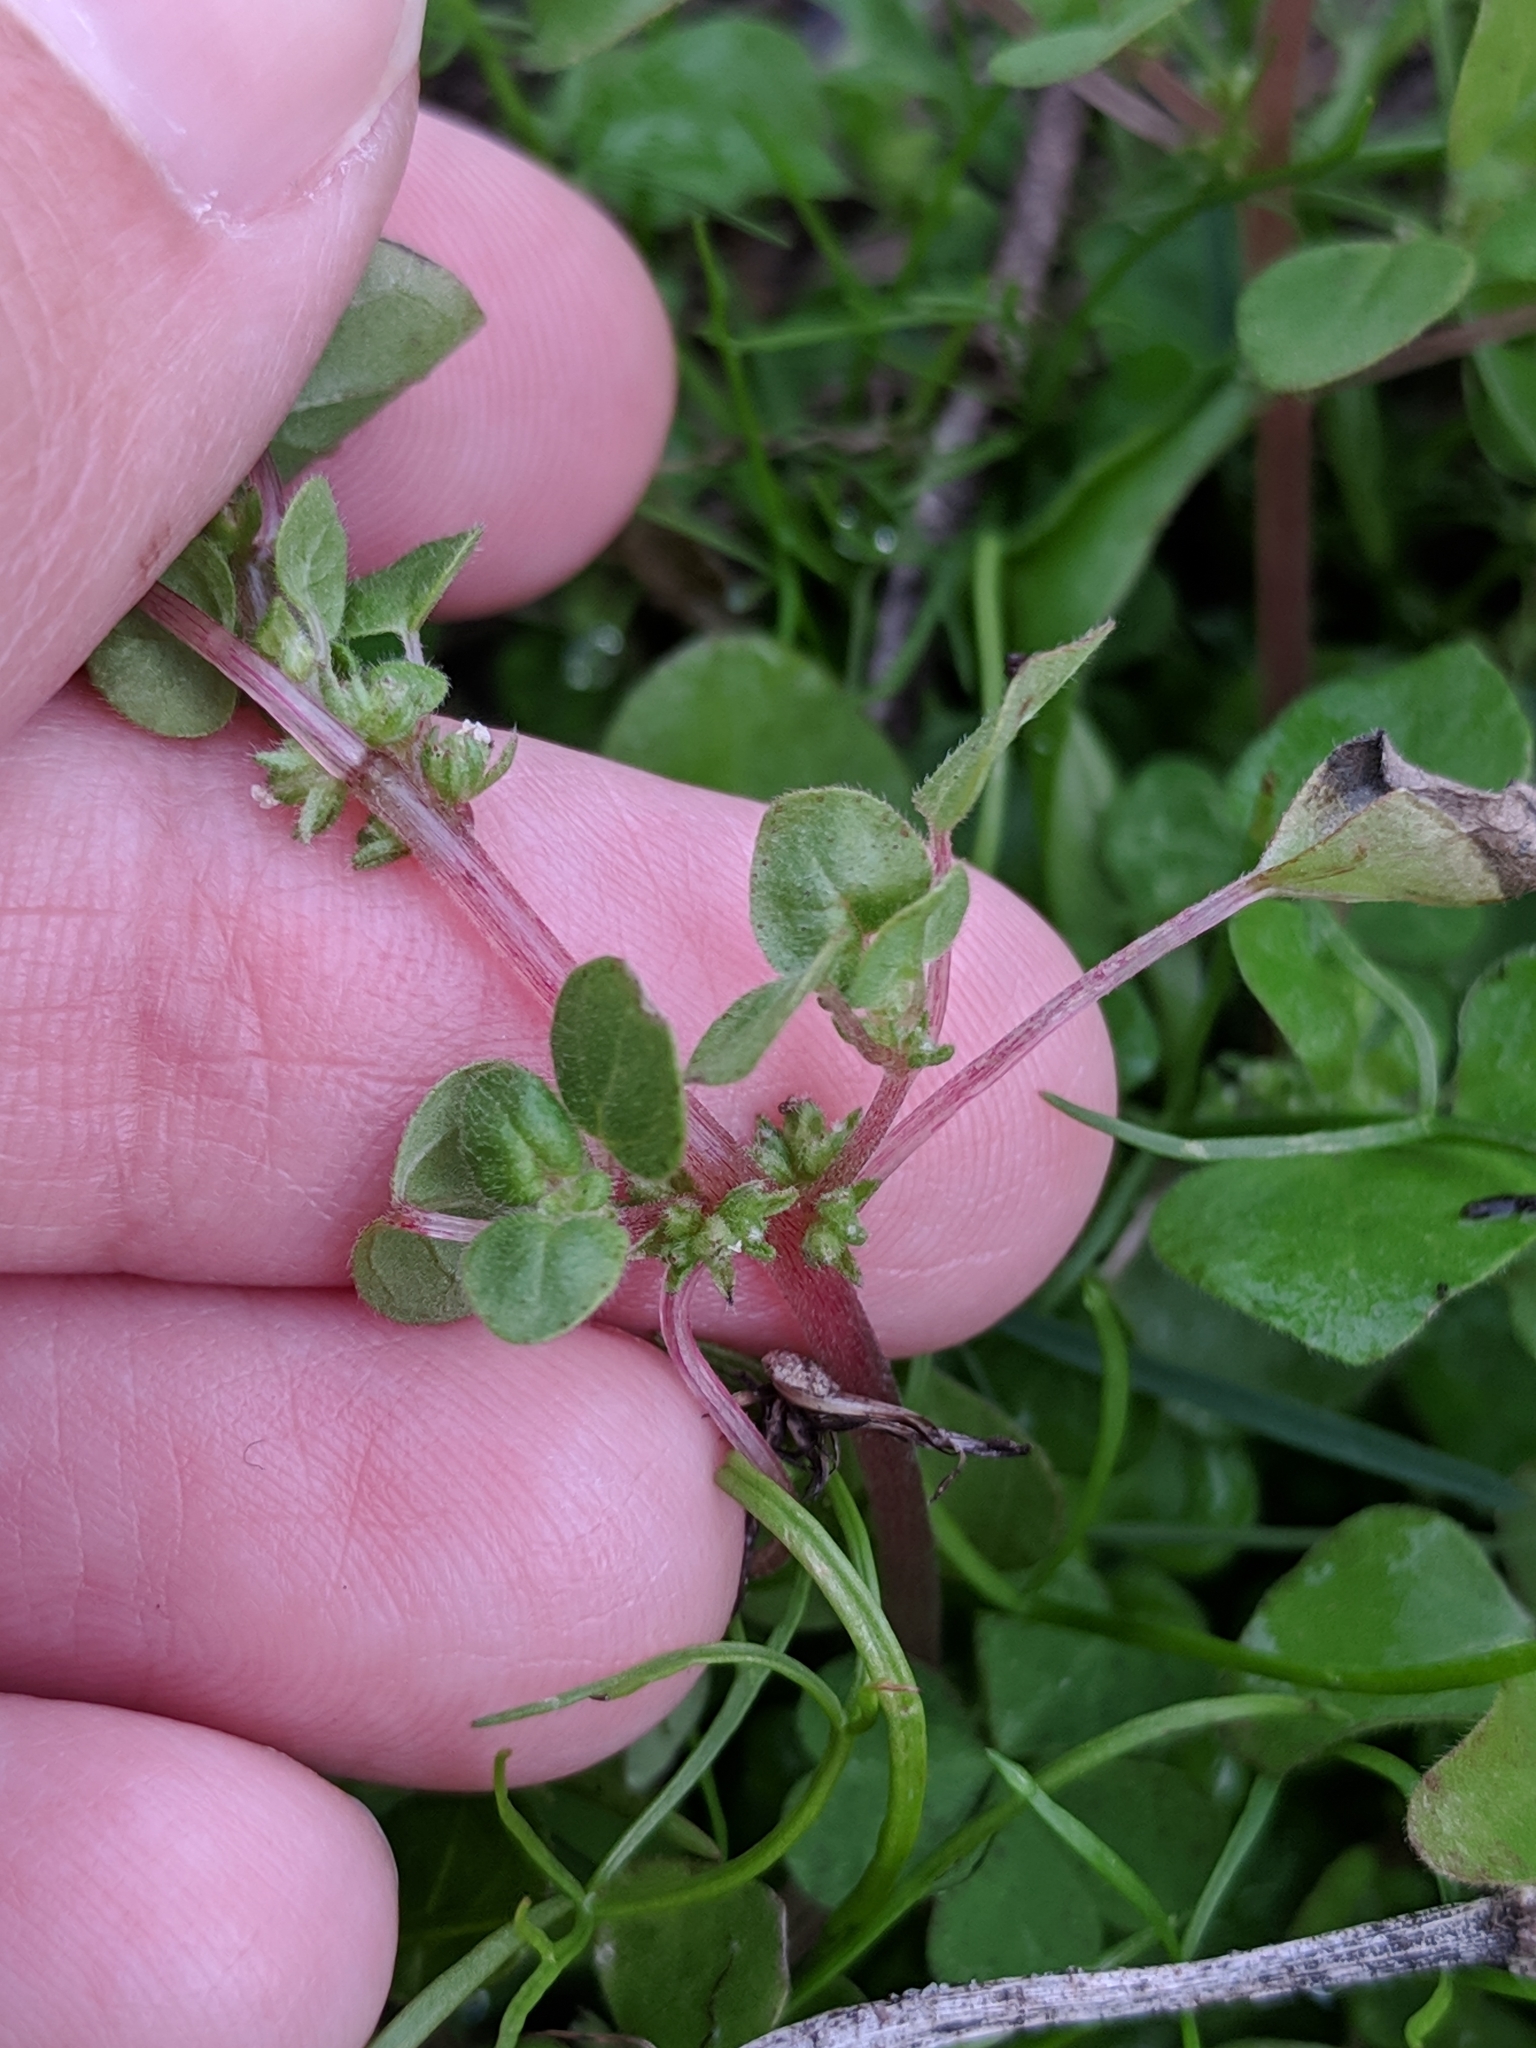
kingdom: Plantae
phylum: Tracheophyta
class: Magnoliopsida
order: Rosales
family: Urticaceae
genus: Parietaria
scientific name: Parietaria floridana
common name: Florida pellitory
